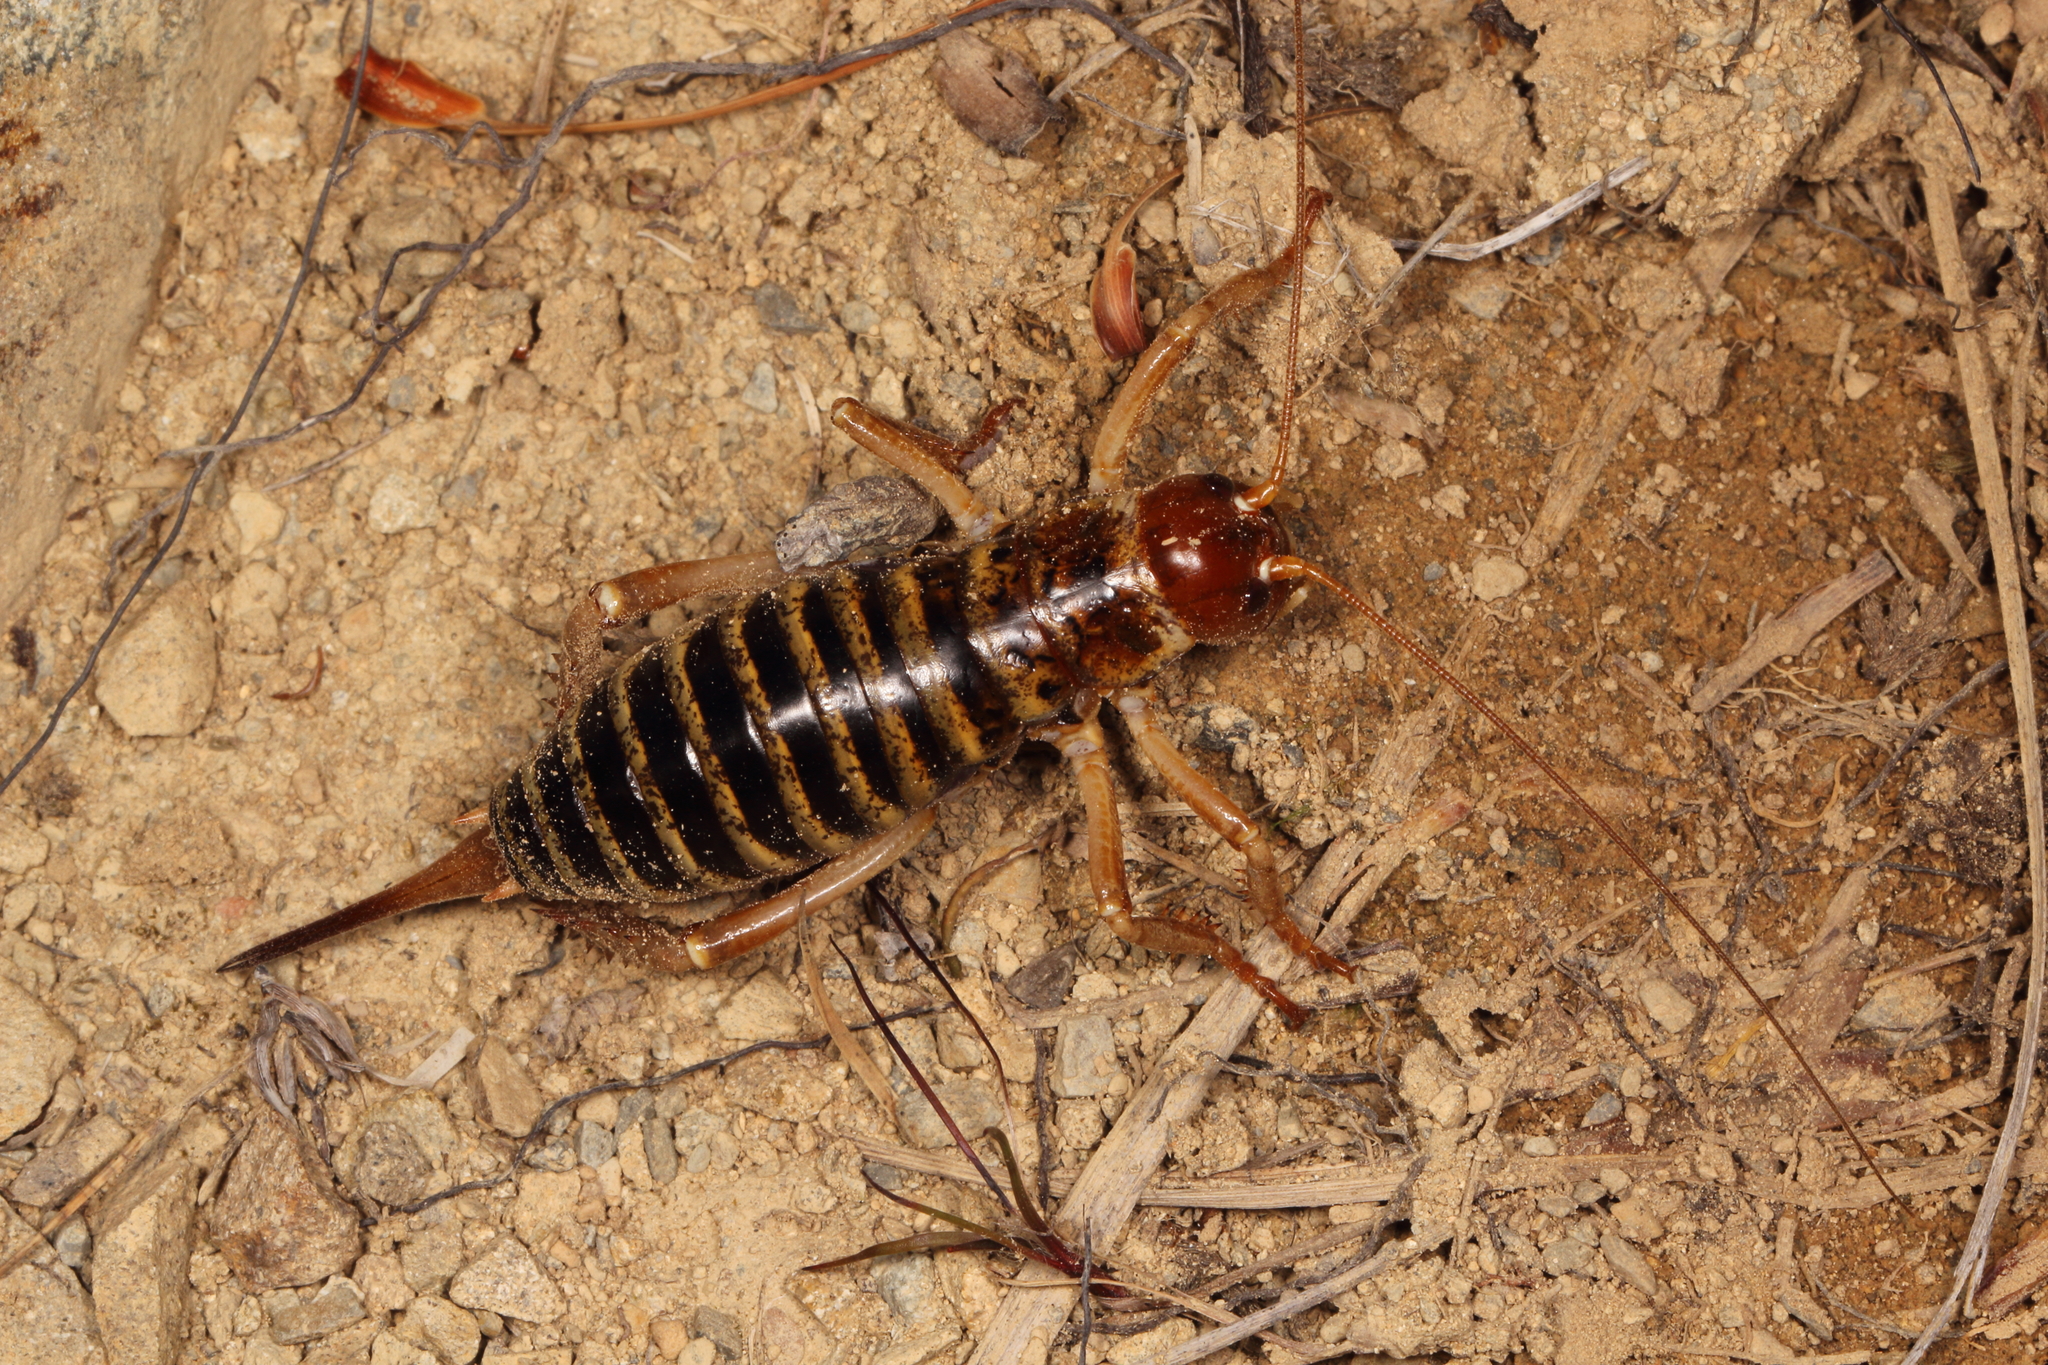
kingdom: Animalia
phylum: Arthropoda
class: Insecta
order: Orthoptera
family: Anostostomatidae
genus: Hemideina
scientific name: Hemideina maori
